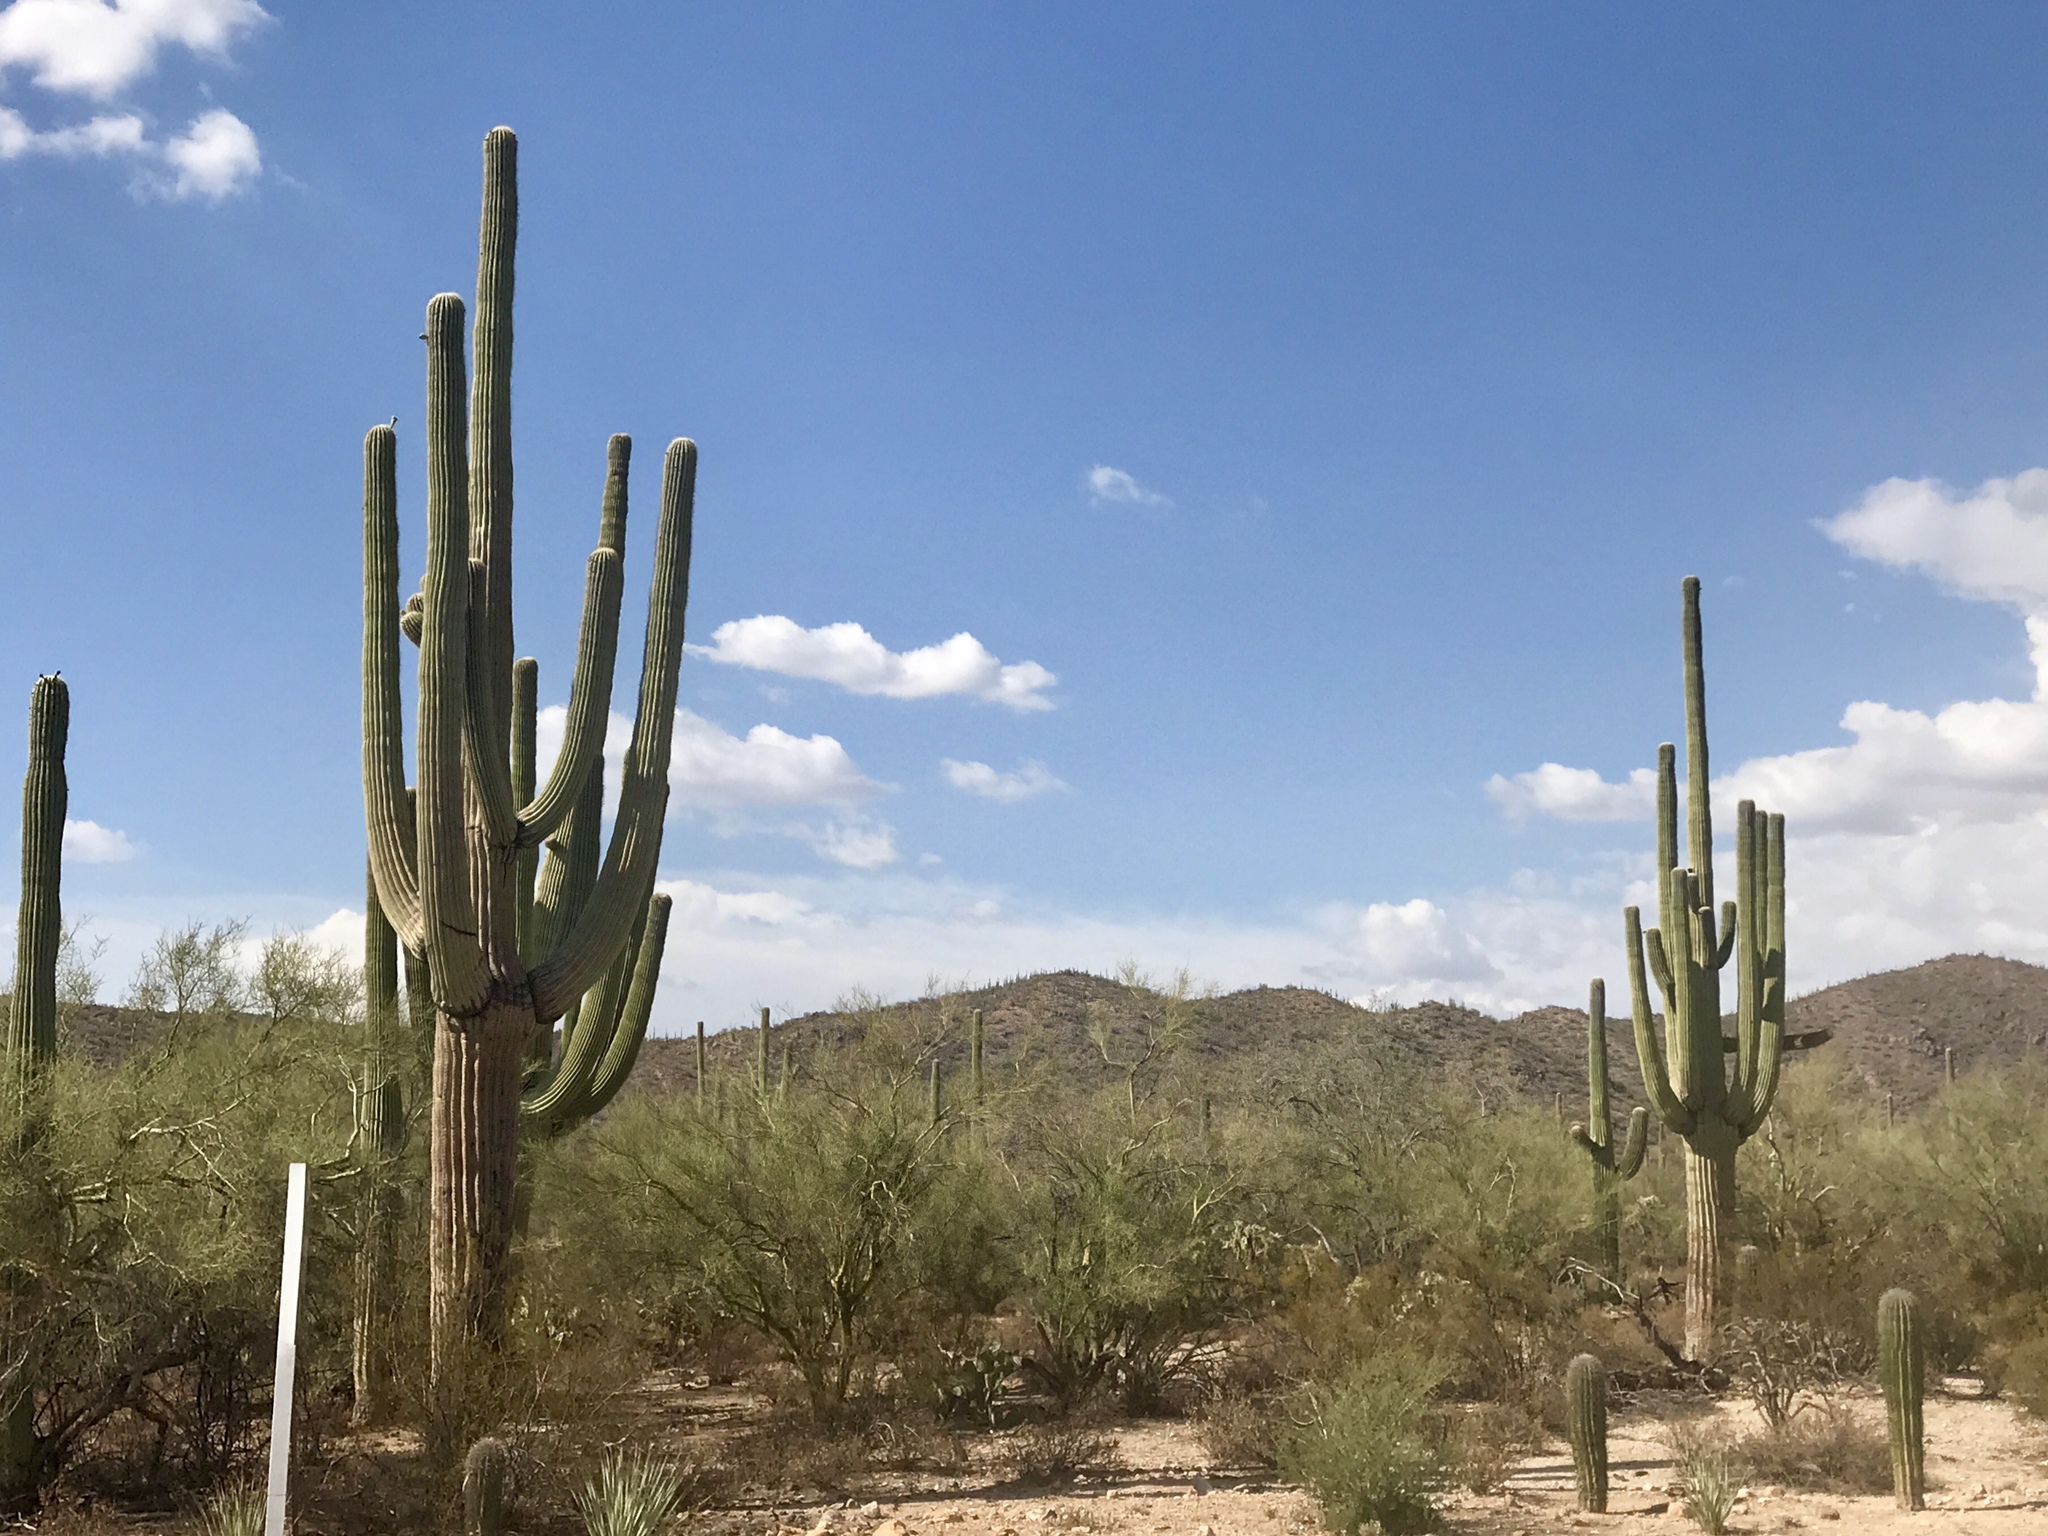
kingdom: Plantae
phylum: Tracheophyta
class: Magnoliopsida
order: Caryophyllales
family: Cactaceae
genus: Carnegiea
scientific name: Carnegiea gigantea
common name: Saguaro
